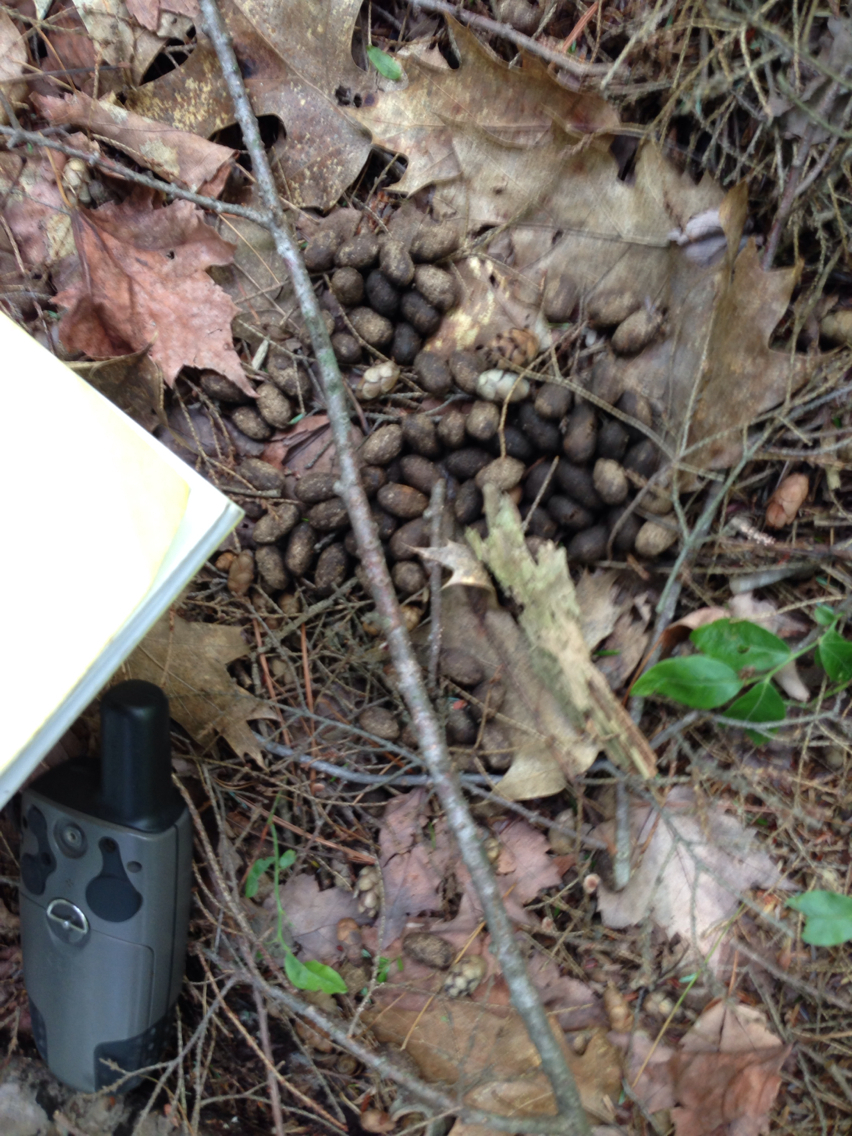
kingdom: Animalia
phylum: Chordata
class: Mammalia
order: Artiodactyla
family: Cervidae
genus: Odocoileus
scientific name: Odocoileus virginianus
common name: White-tailed deer
